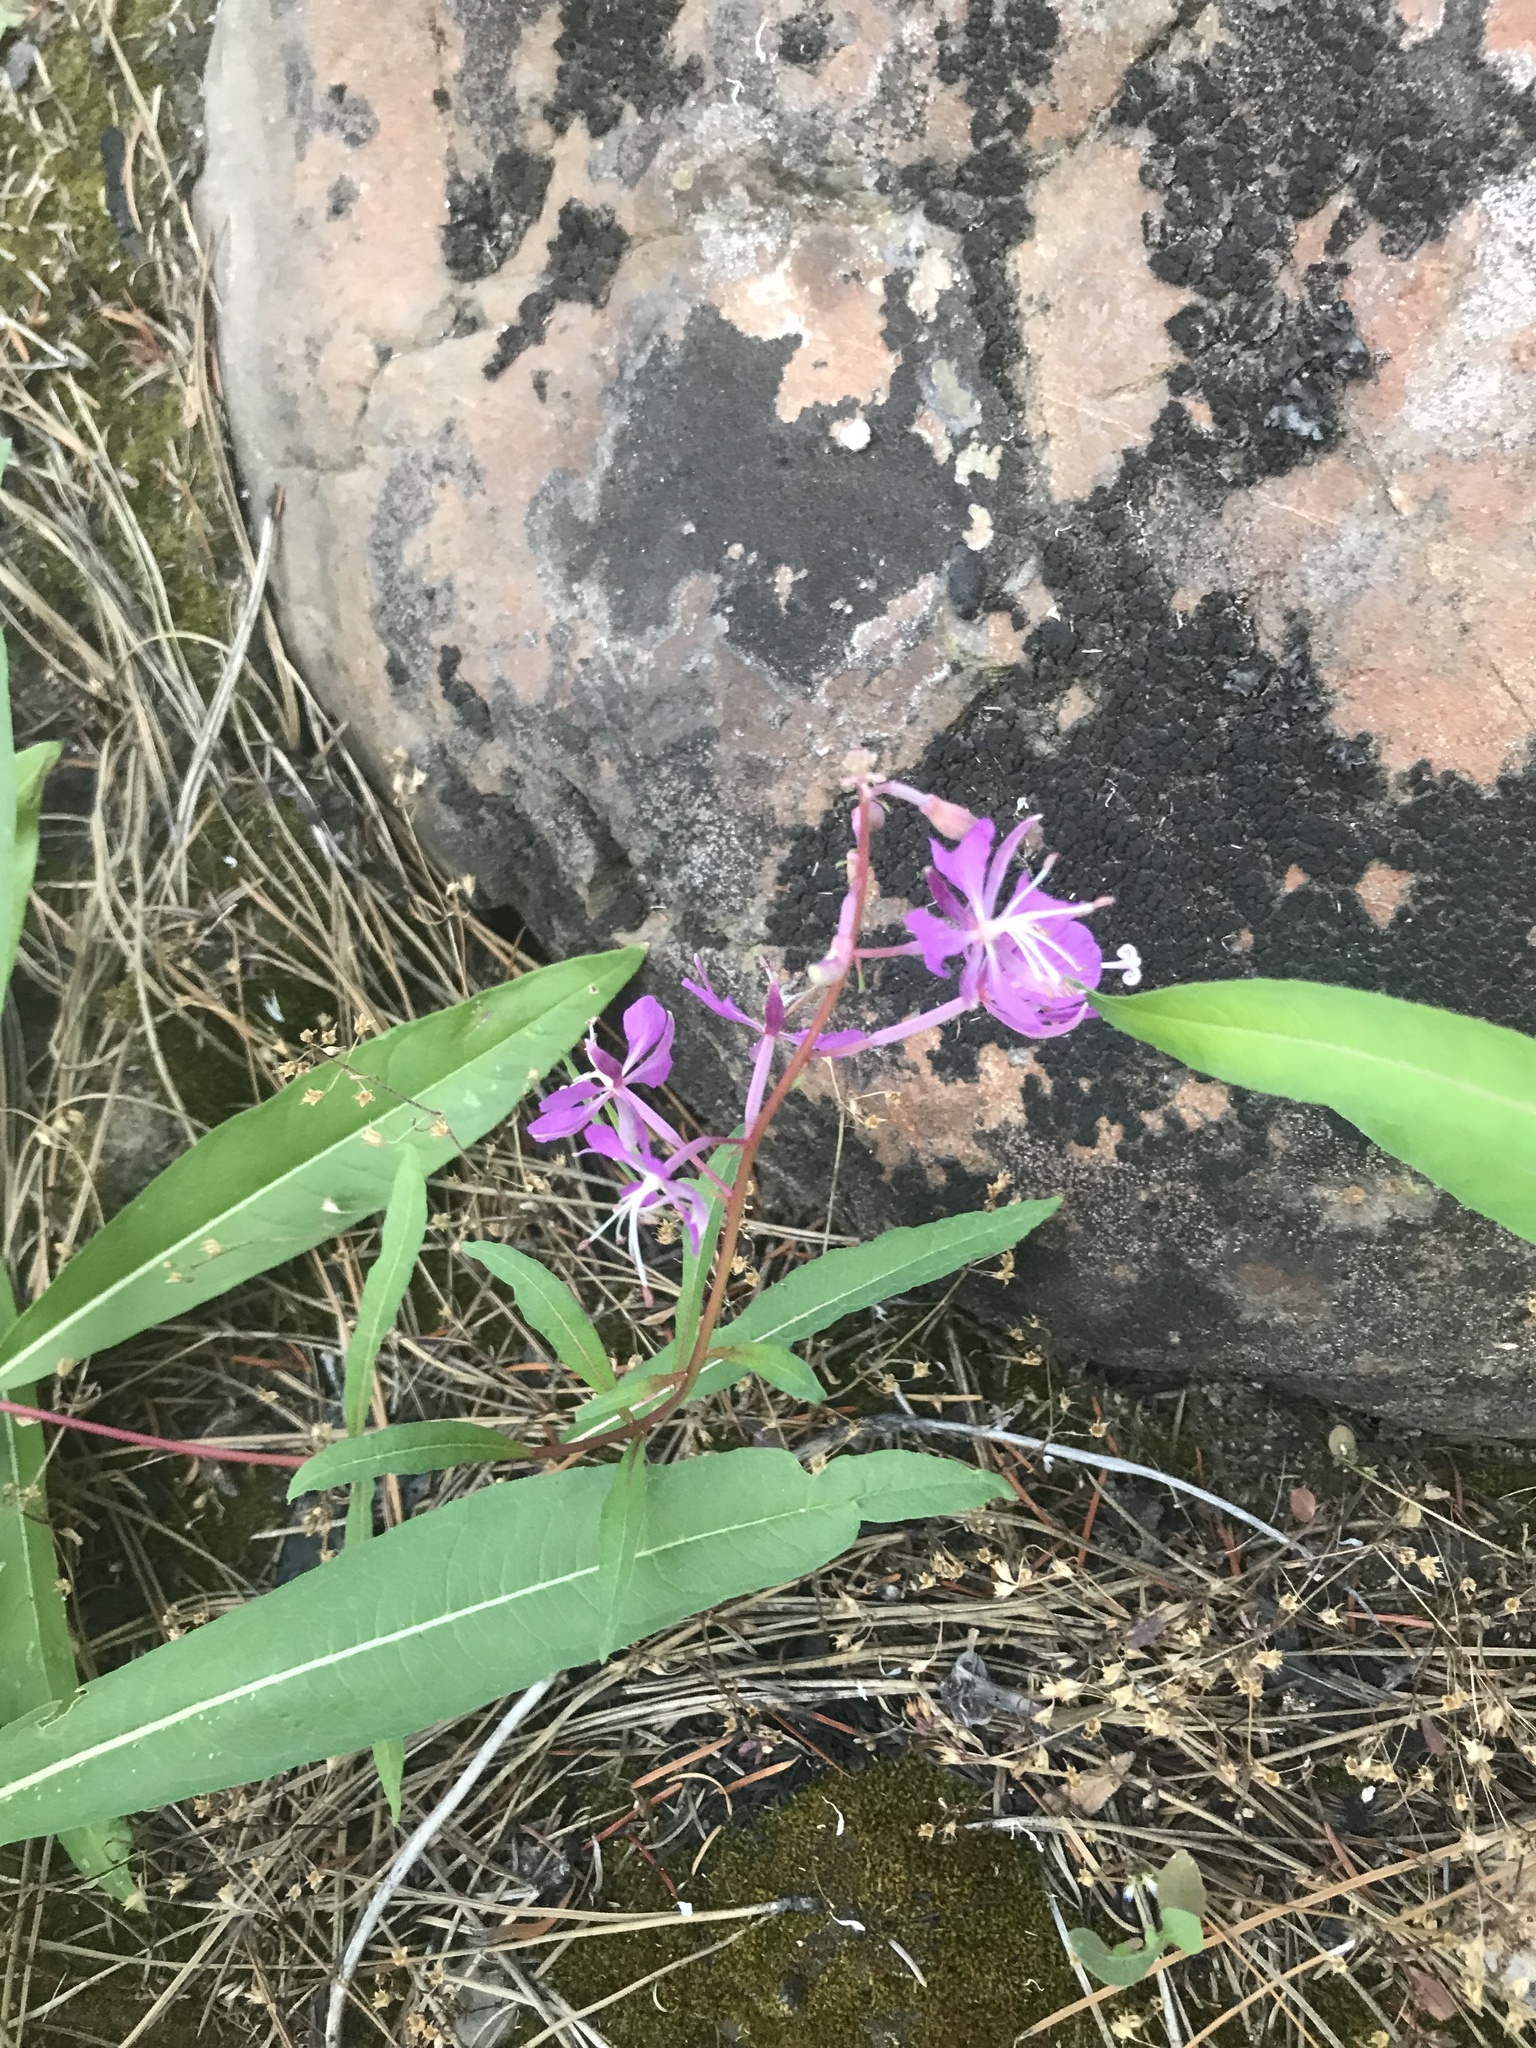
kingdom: Plantae
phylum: Tracheophyta
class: Magnoliopsida
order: Myrtales
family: Onagraceae
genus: Chamaenerion
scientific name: Chamaenerion angustifolium
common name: Fireweed
